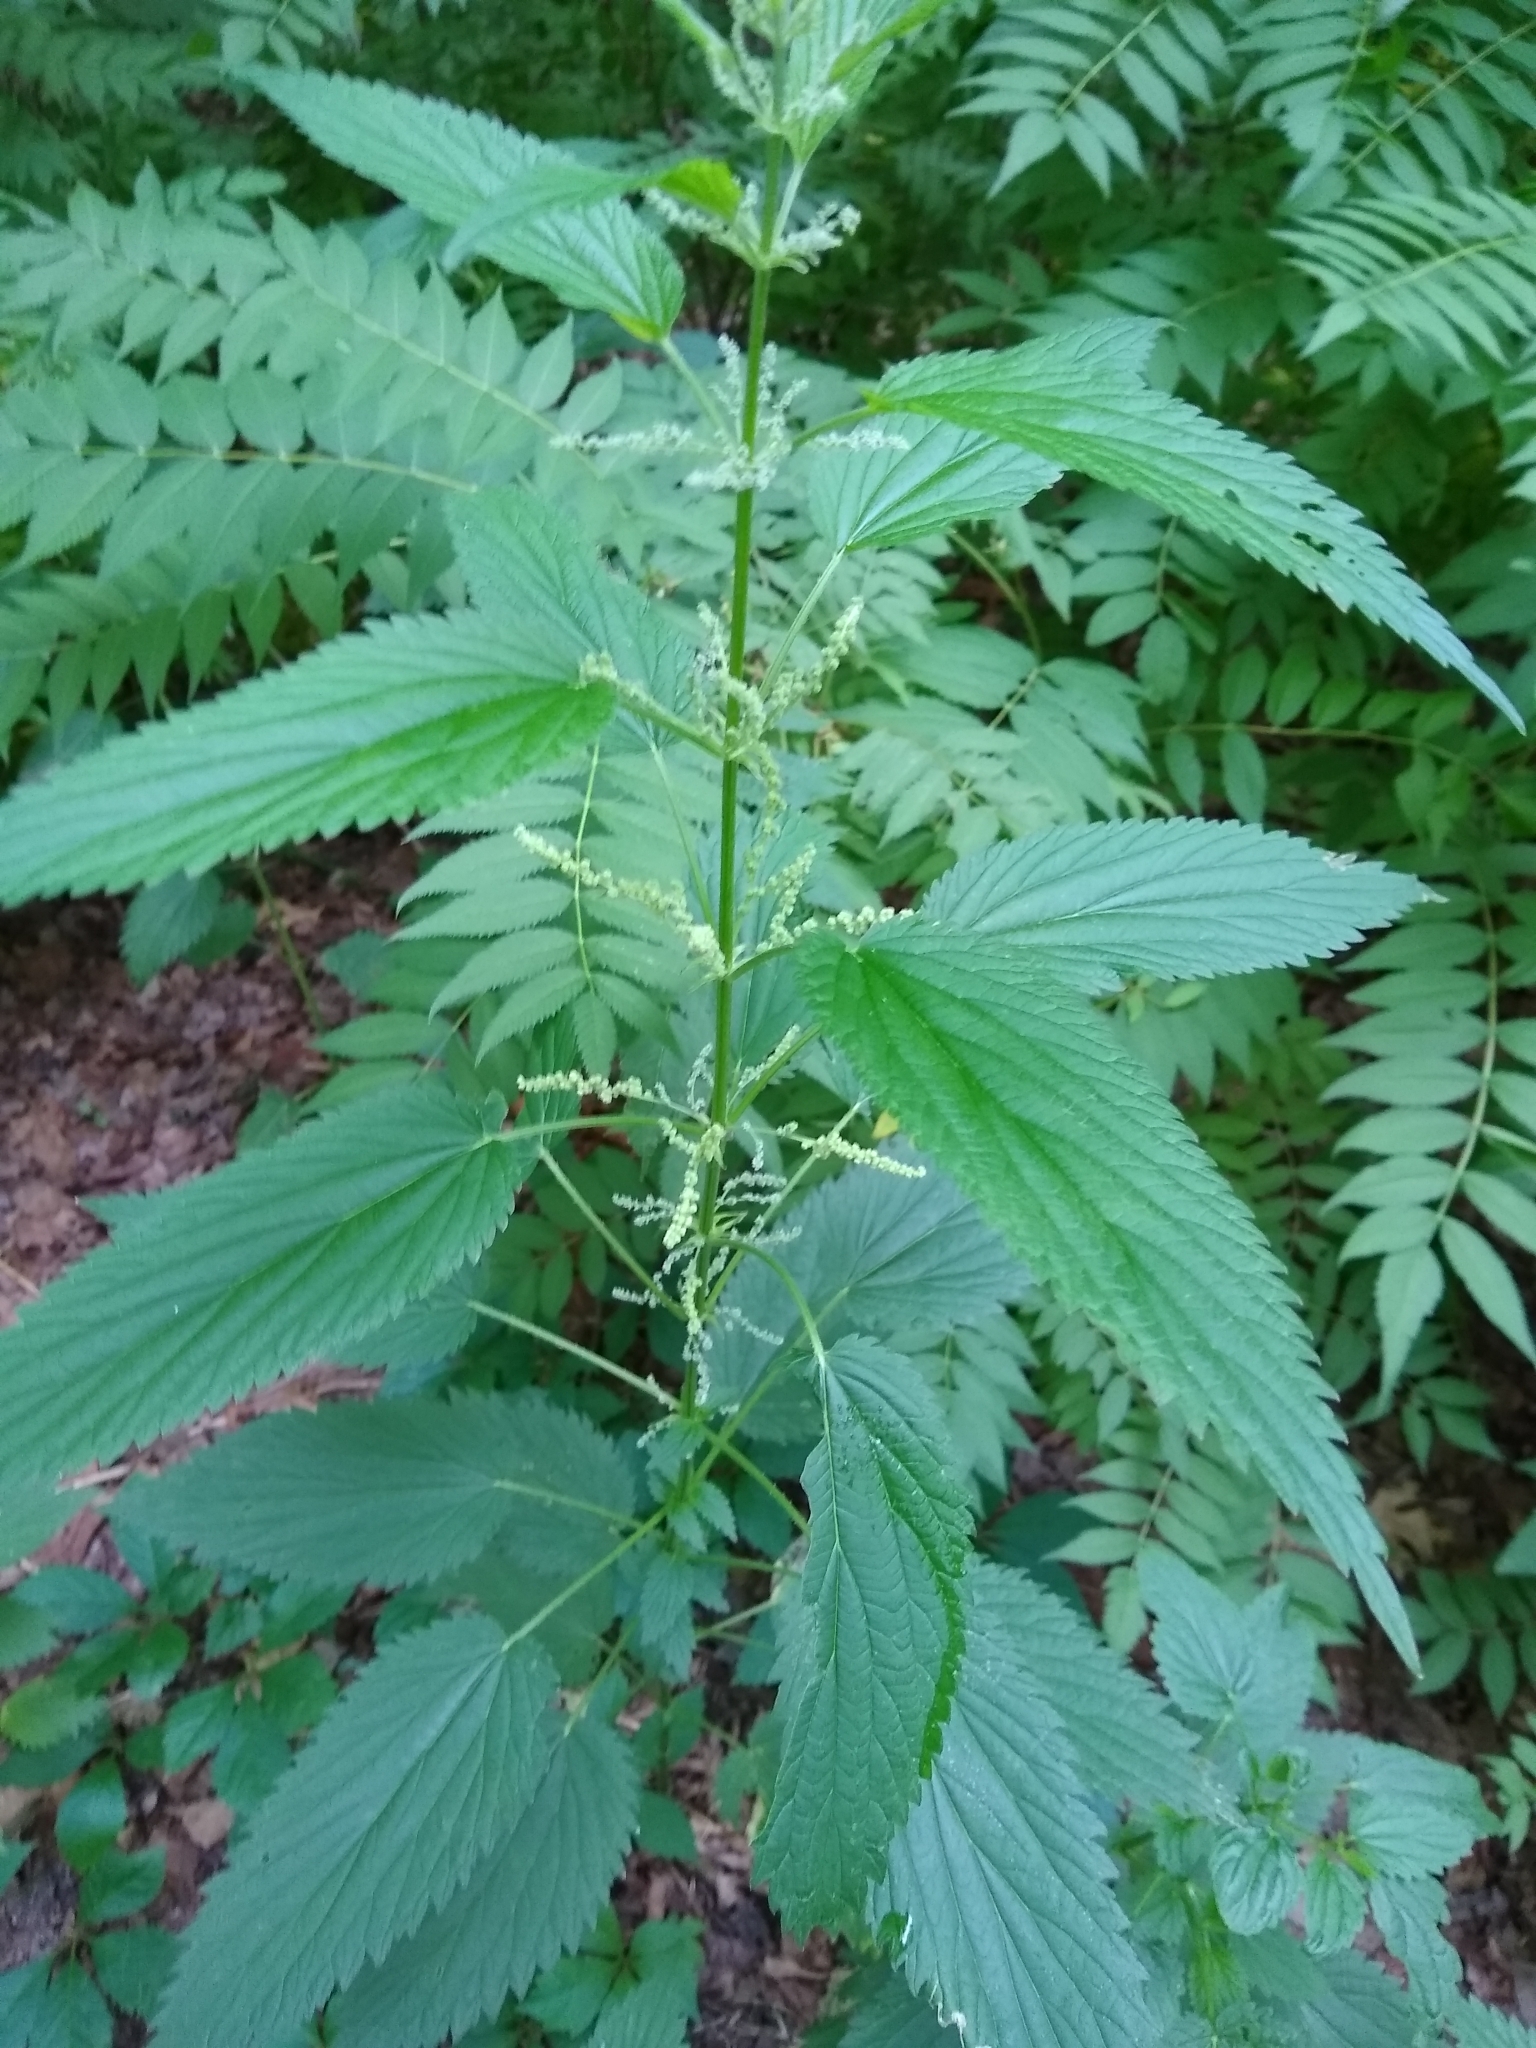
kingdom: Plantae
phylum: Tracheophyta
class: Magnoliopsida
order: Rosales
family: Urticaceae
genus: Urtica
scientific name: Urtica dioica
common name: Common nettle
